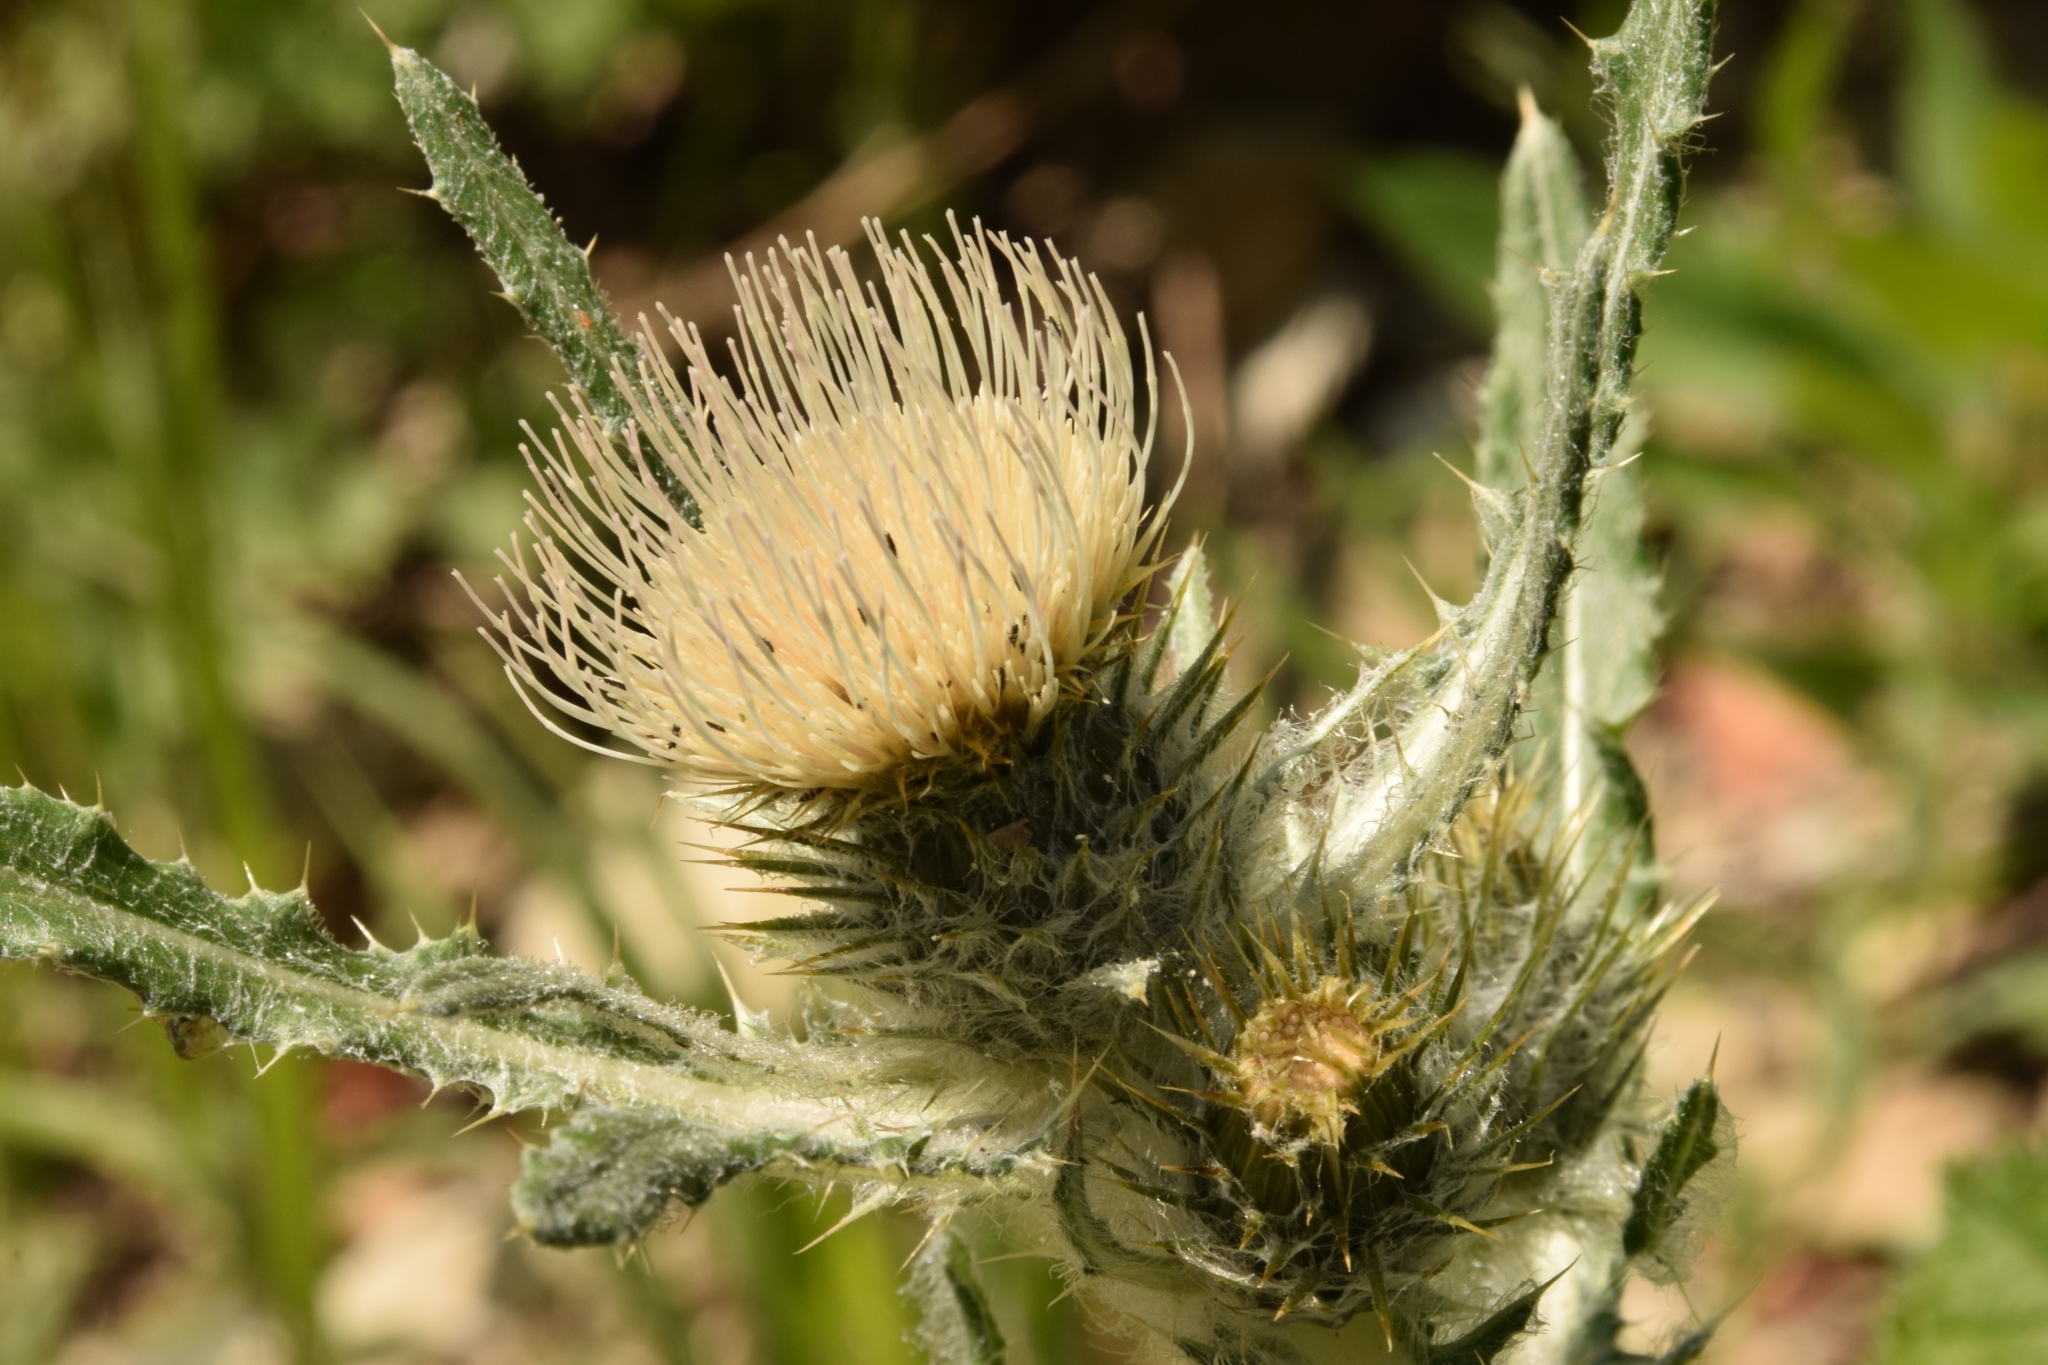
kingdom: Plantae
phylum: Tracheophyta
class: Magnoliopsida
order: Asterales
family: Asteraceae
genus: Cirsium
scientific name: Cirsium hookerianum
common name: Hooker's thistle
